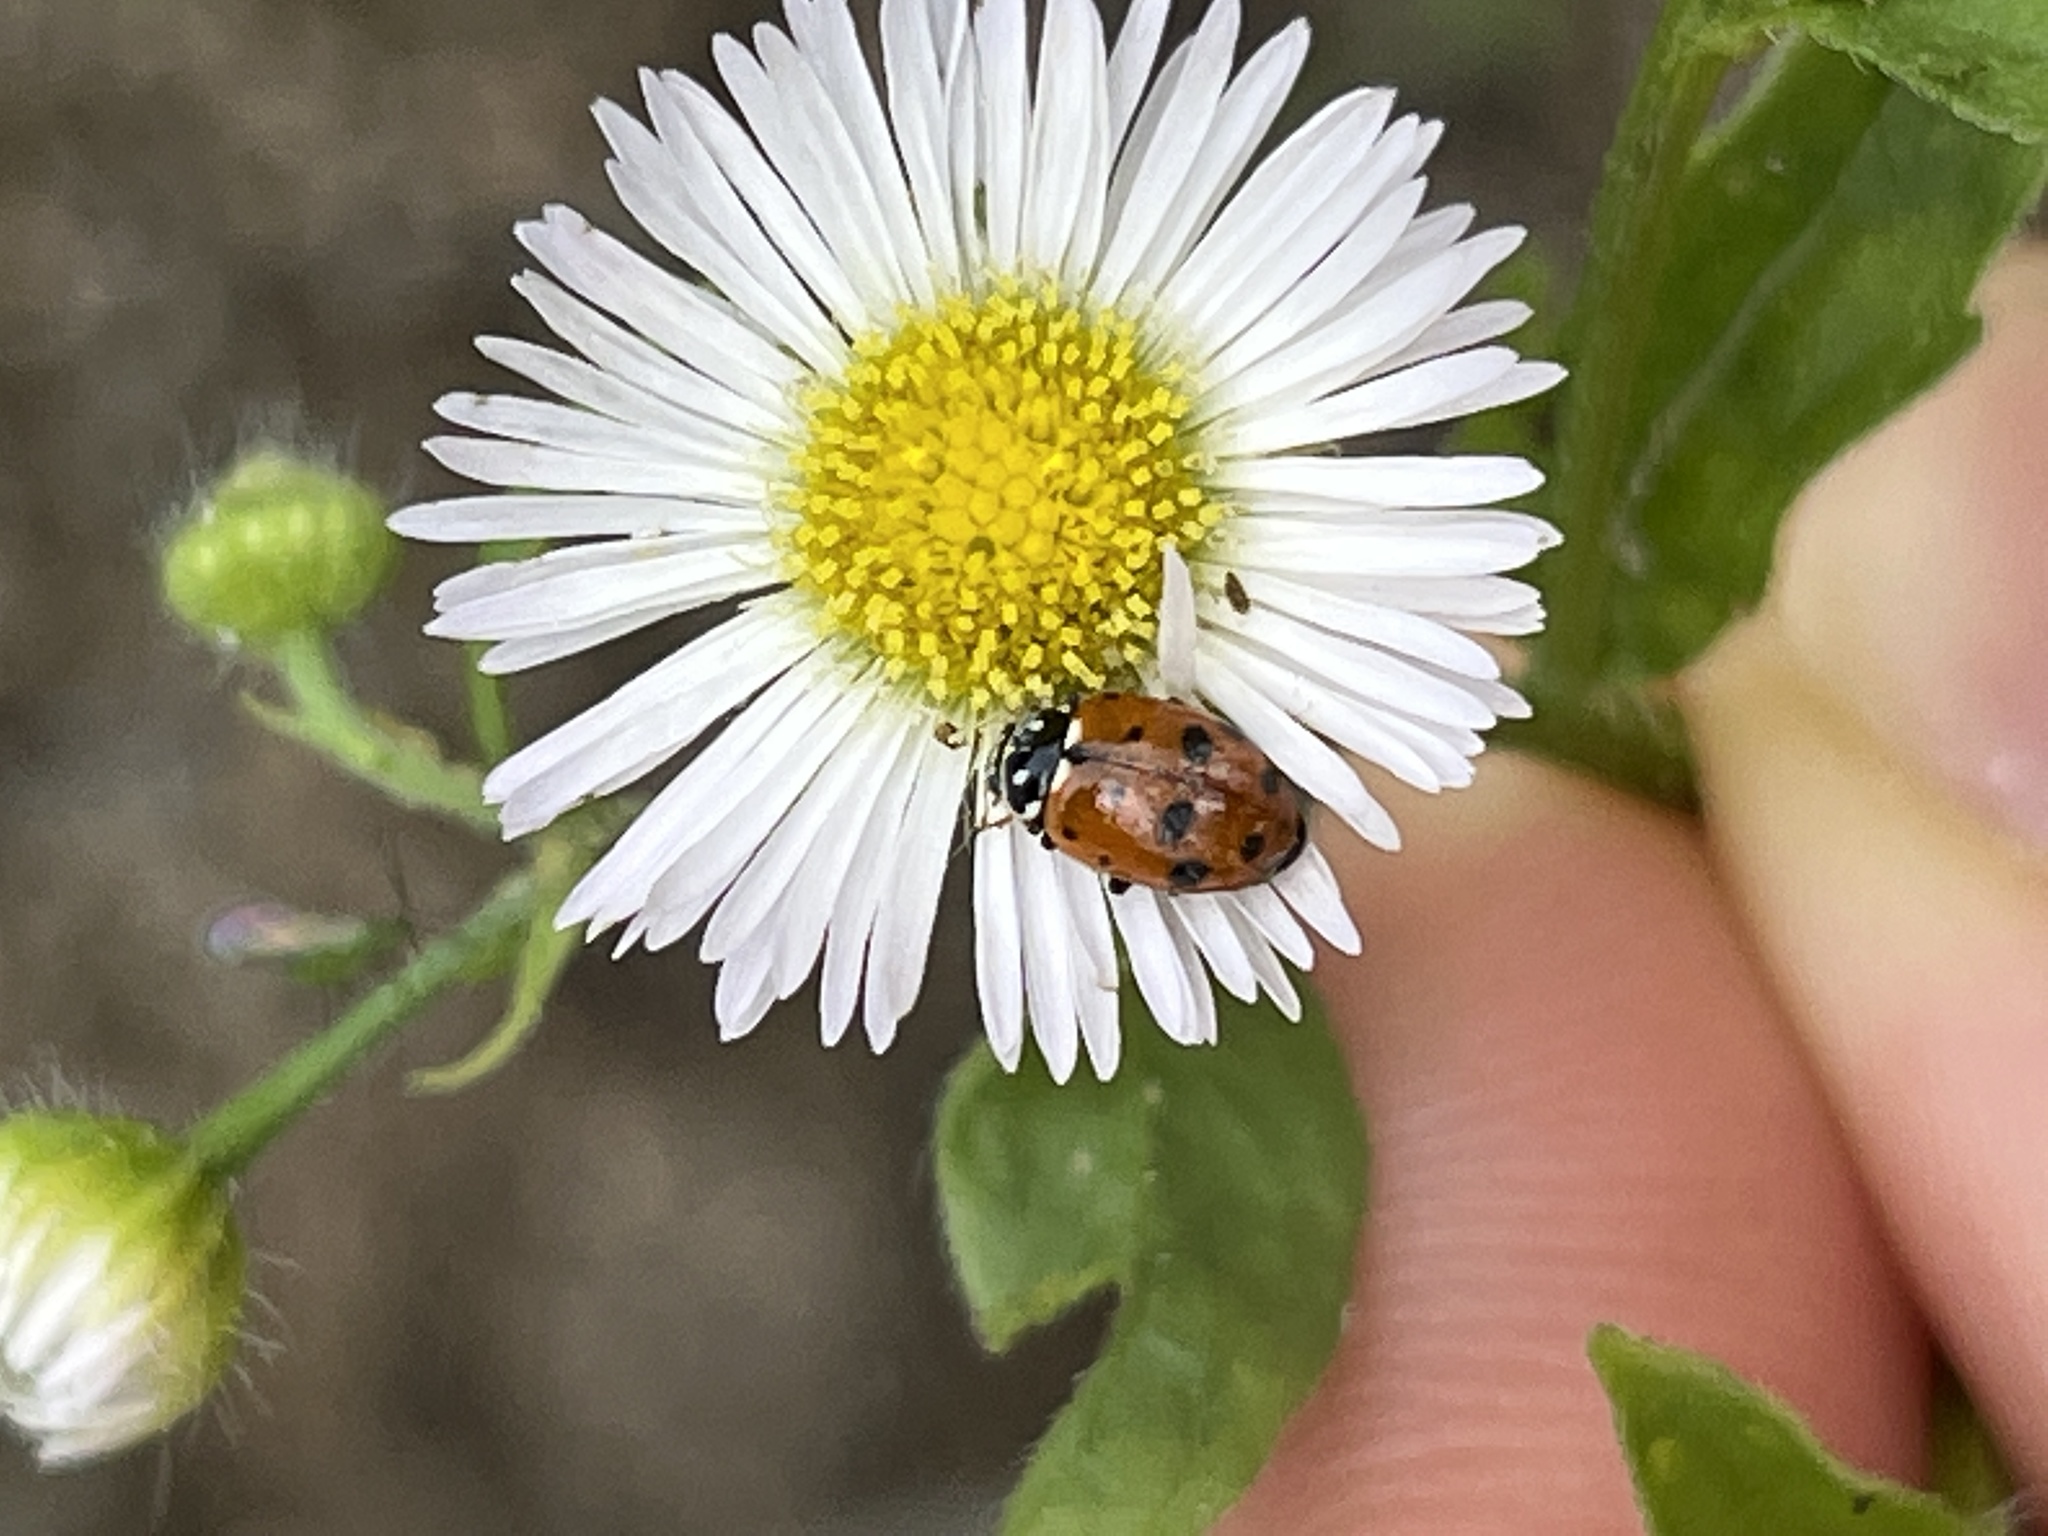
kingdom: Animalia
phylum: Arthropoda
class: Insecta
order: Coleoptera
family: Coccinellidae
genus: Hippodamia
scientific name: Hippodamia variegata
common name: Ladybird beetle
